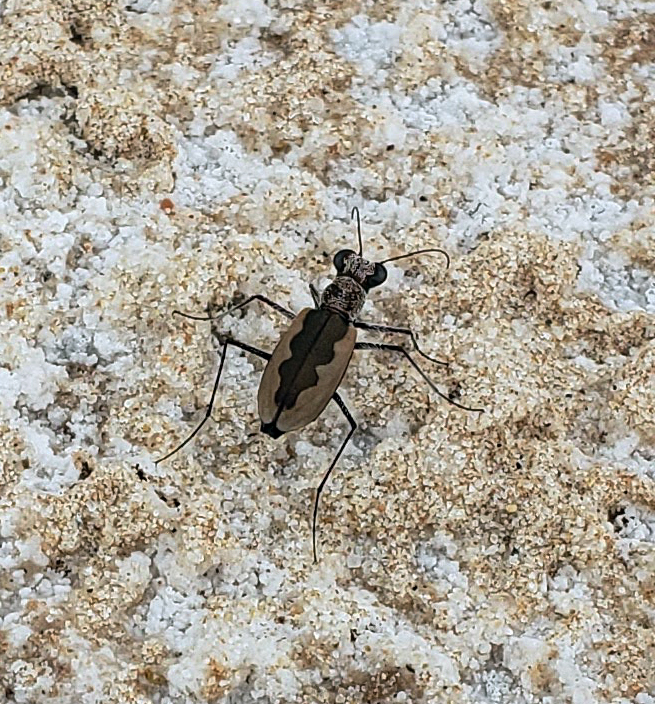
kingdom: Animalia
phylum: Arthropoda
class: Insecta
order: Coleoptera
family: Carabidae
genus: Eunota
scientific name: Eunota togata
